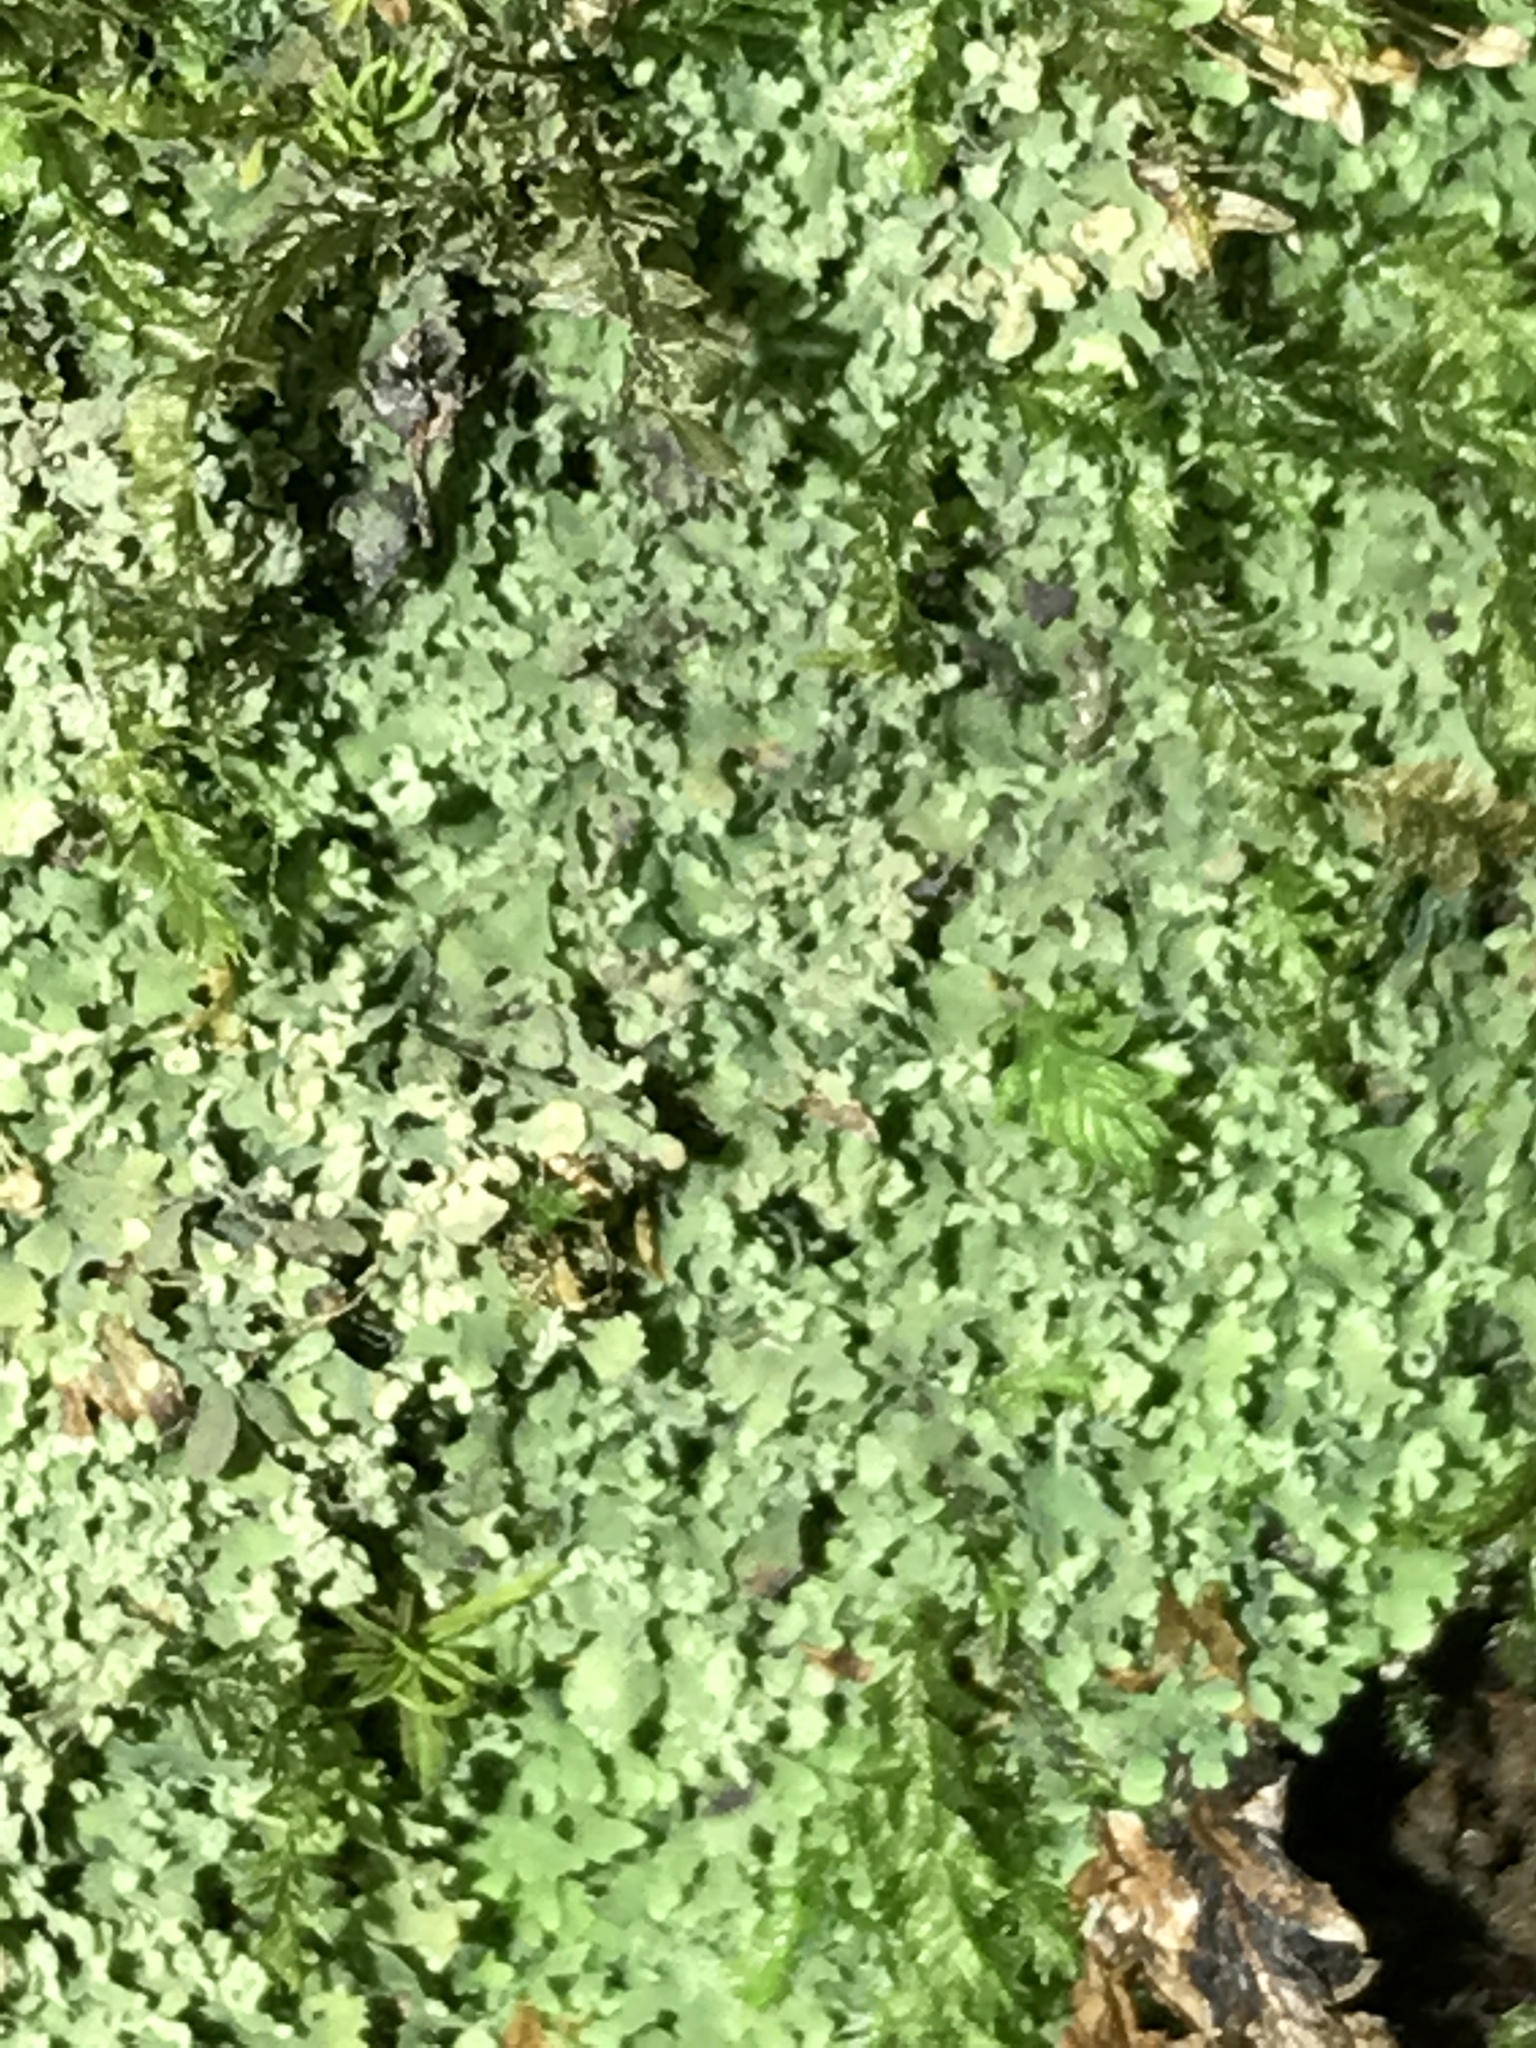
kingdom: Fungi
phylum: Ascomycota
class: Eurotiomycetes
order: Verrucariales
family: Verrucariaceae
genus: Flakea
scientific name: Flakea papillata
